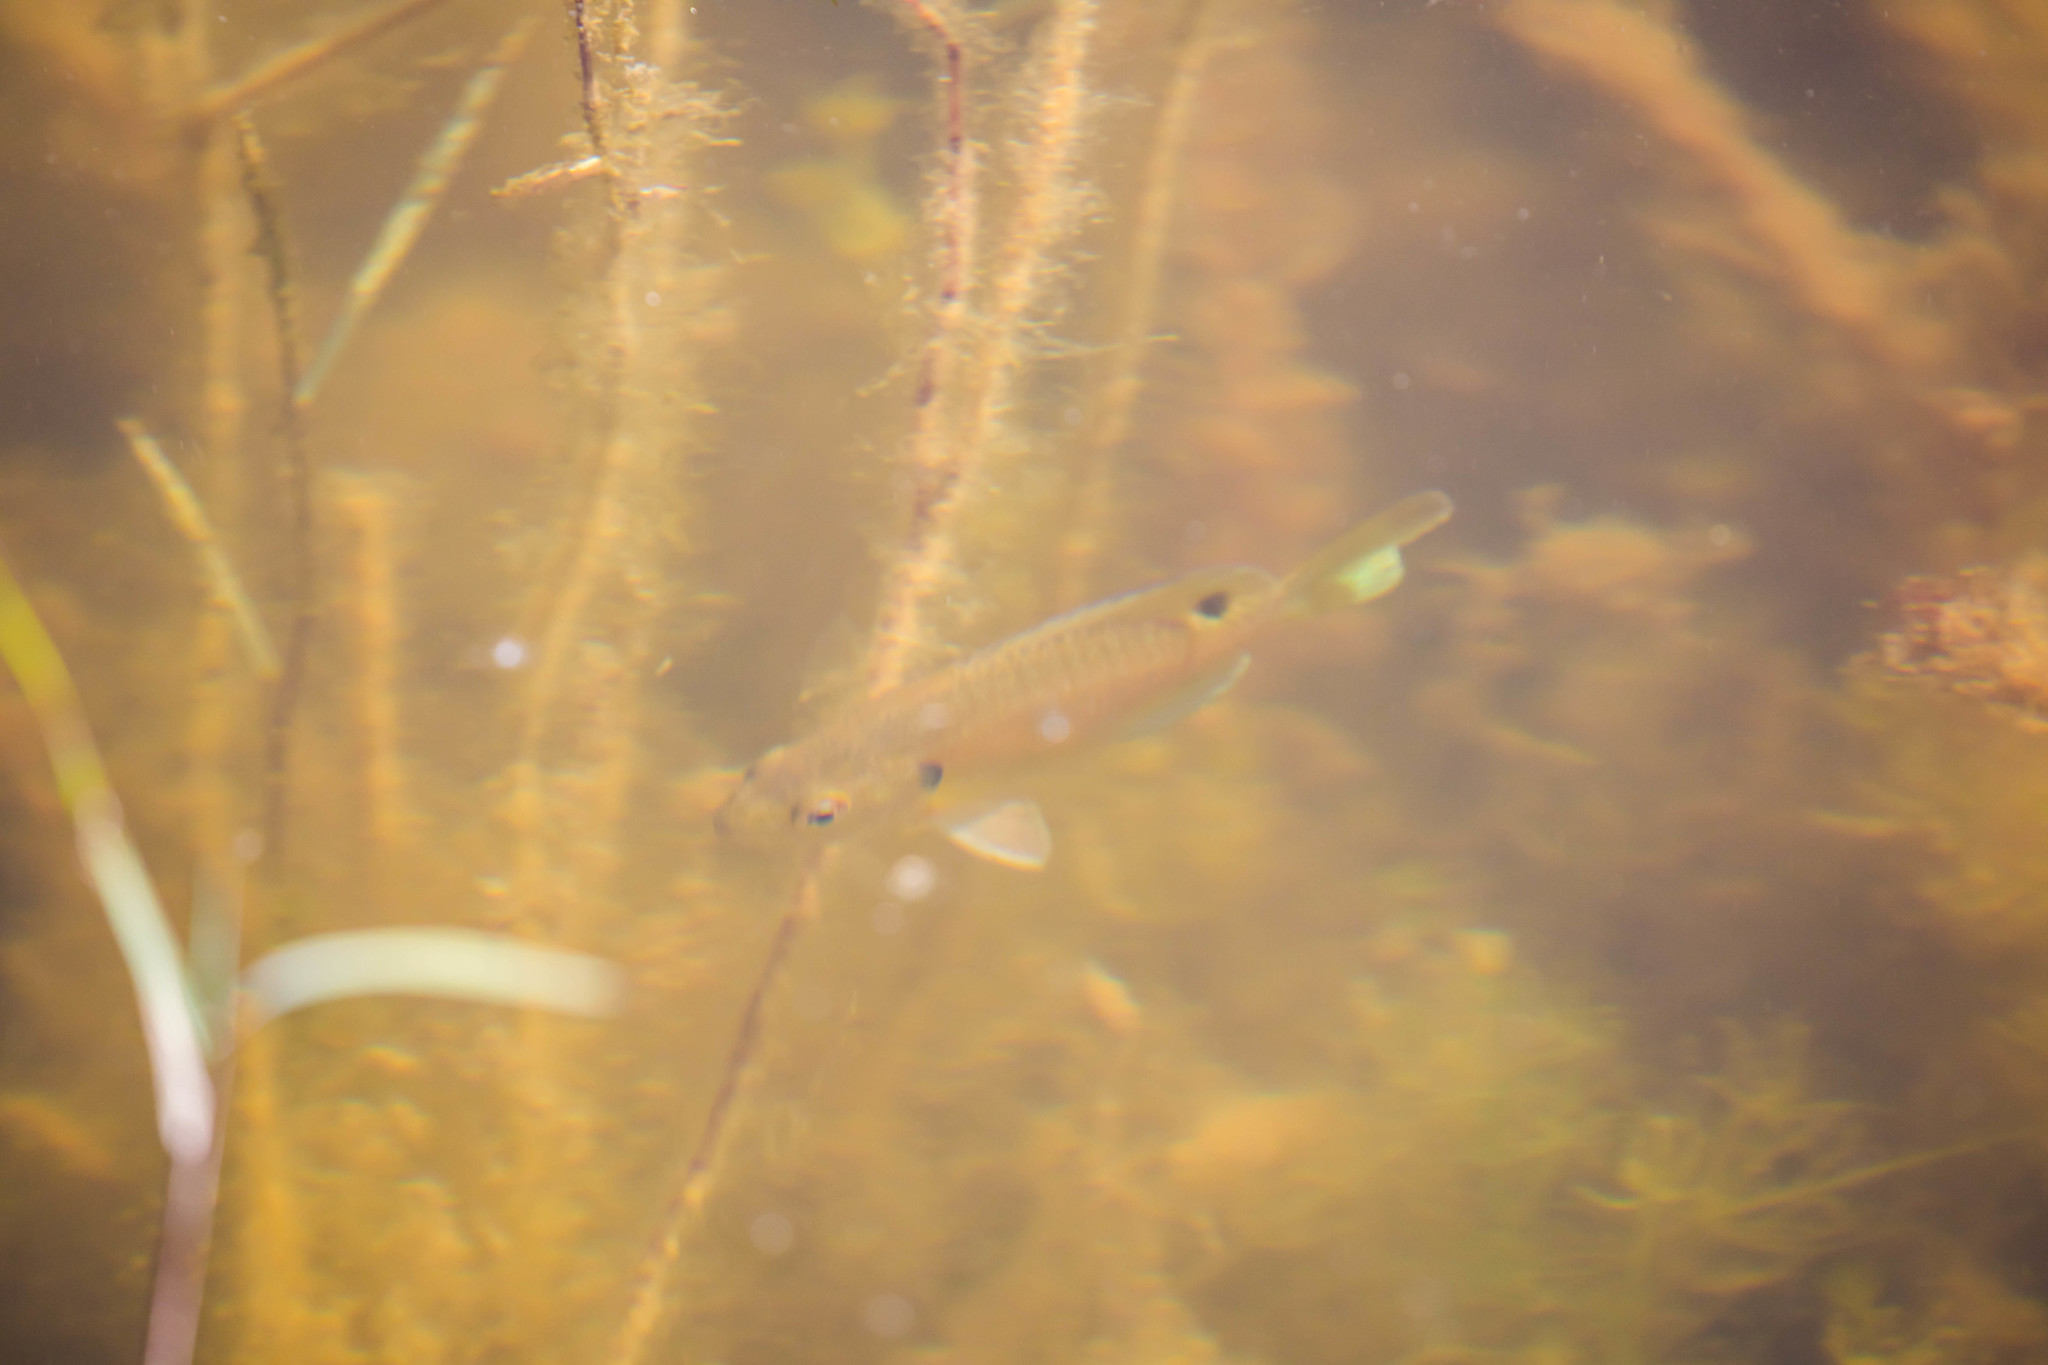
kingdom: Animalia
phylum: Chordata
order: Perciformes
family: Centrarchidae
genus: Lepomis
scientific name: Lepomis macrochirus
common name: Bluegill
